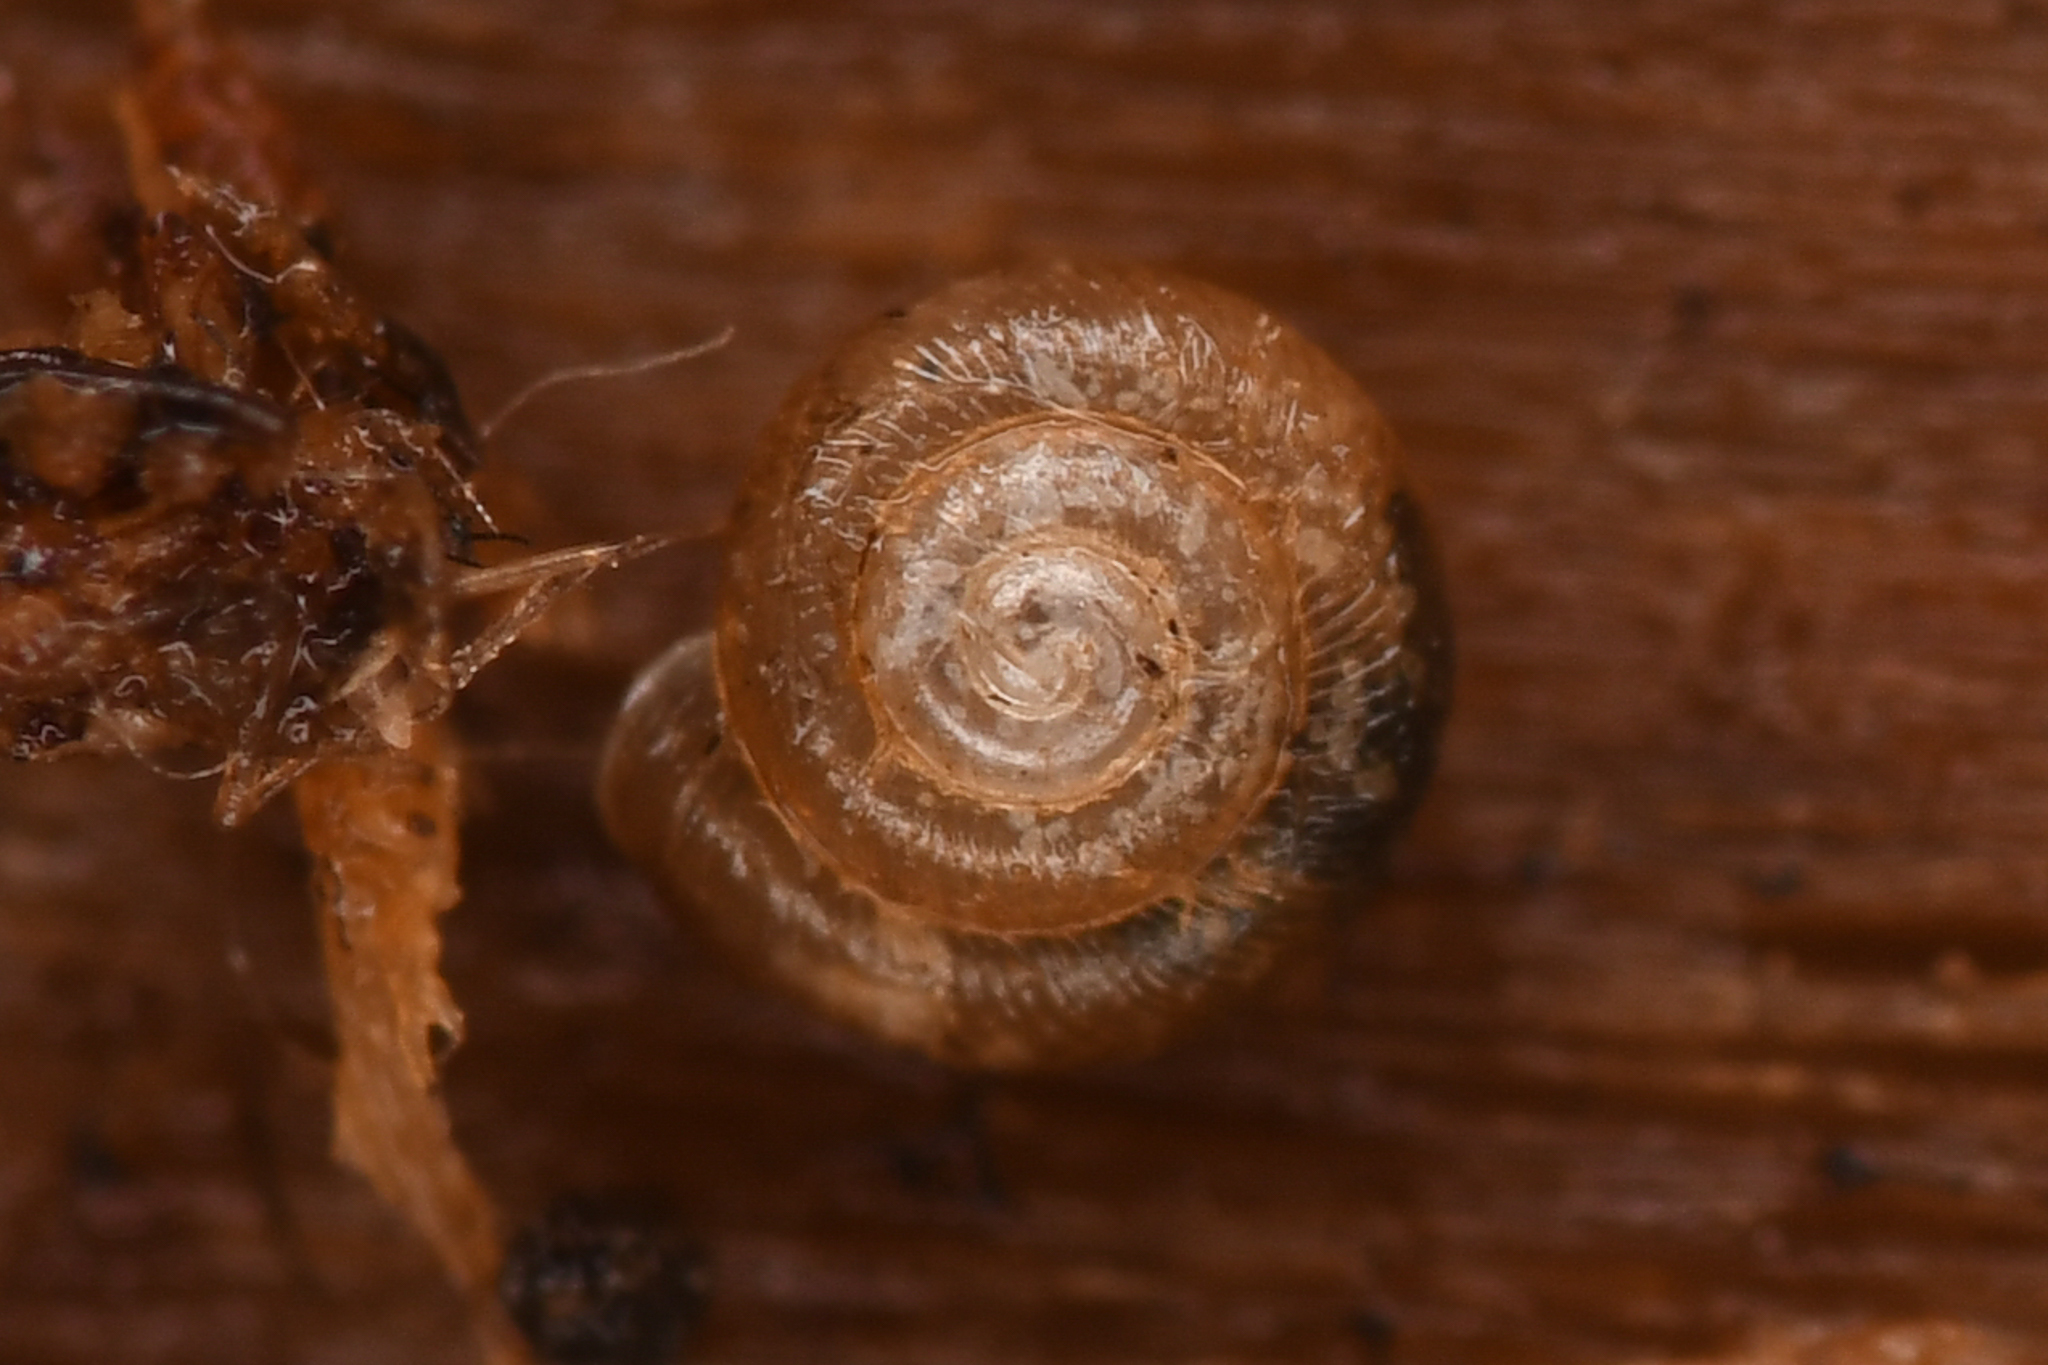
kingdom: Animalia
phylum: Mollusca
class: Gastropoda
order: Stylommatophora
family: Punctidae
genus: Punctum
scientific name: Punctum californicum
